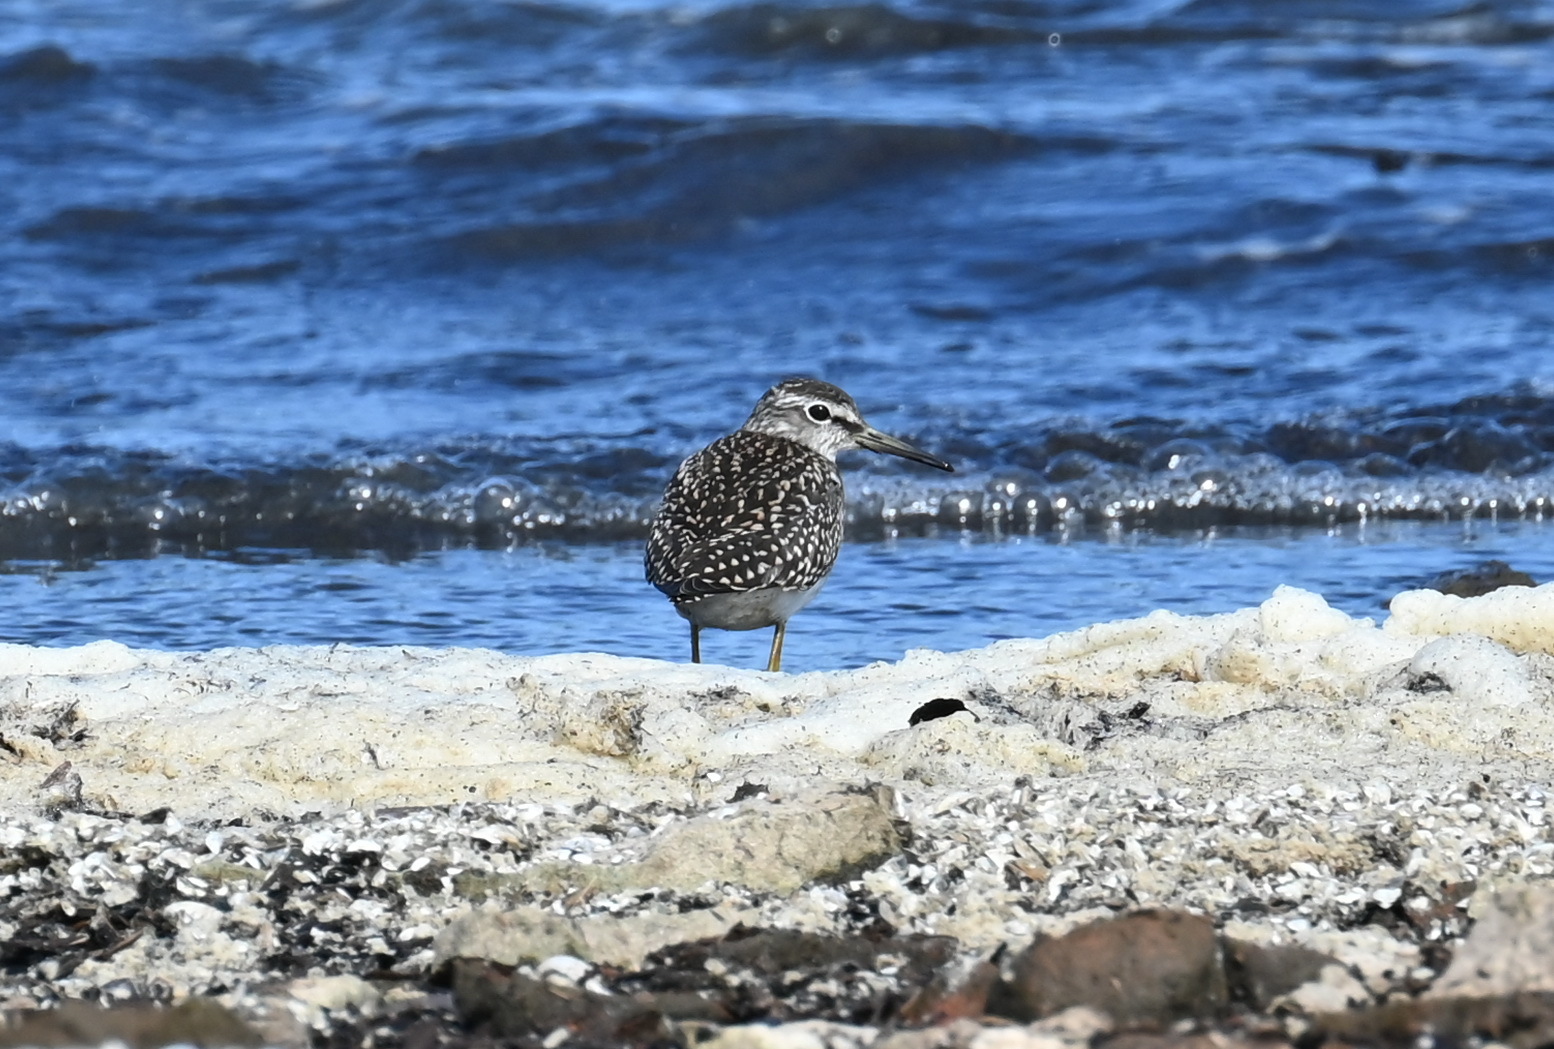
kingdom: Animalia
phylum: Chordata
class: Aves
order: Charadriiformes
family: Scolopacidae
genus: Tringa
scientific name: Tringa glareola
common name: Wood sandpiper
